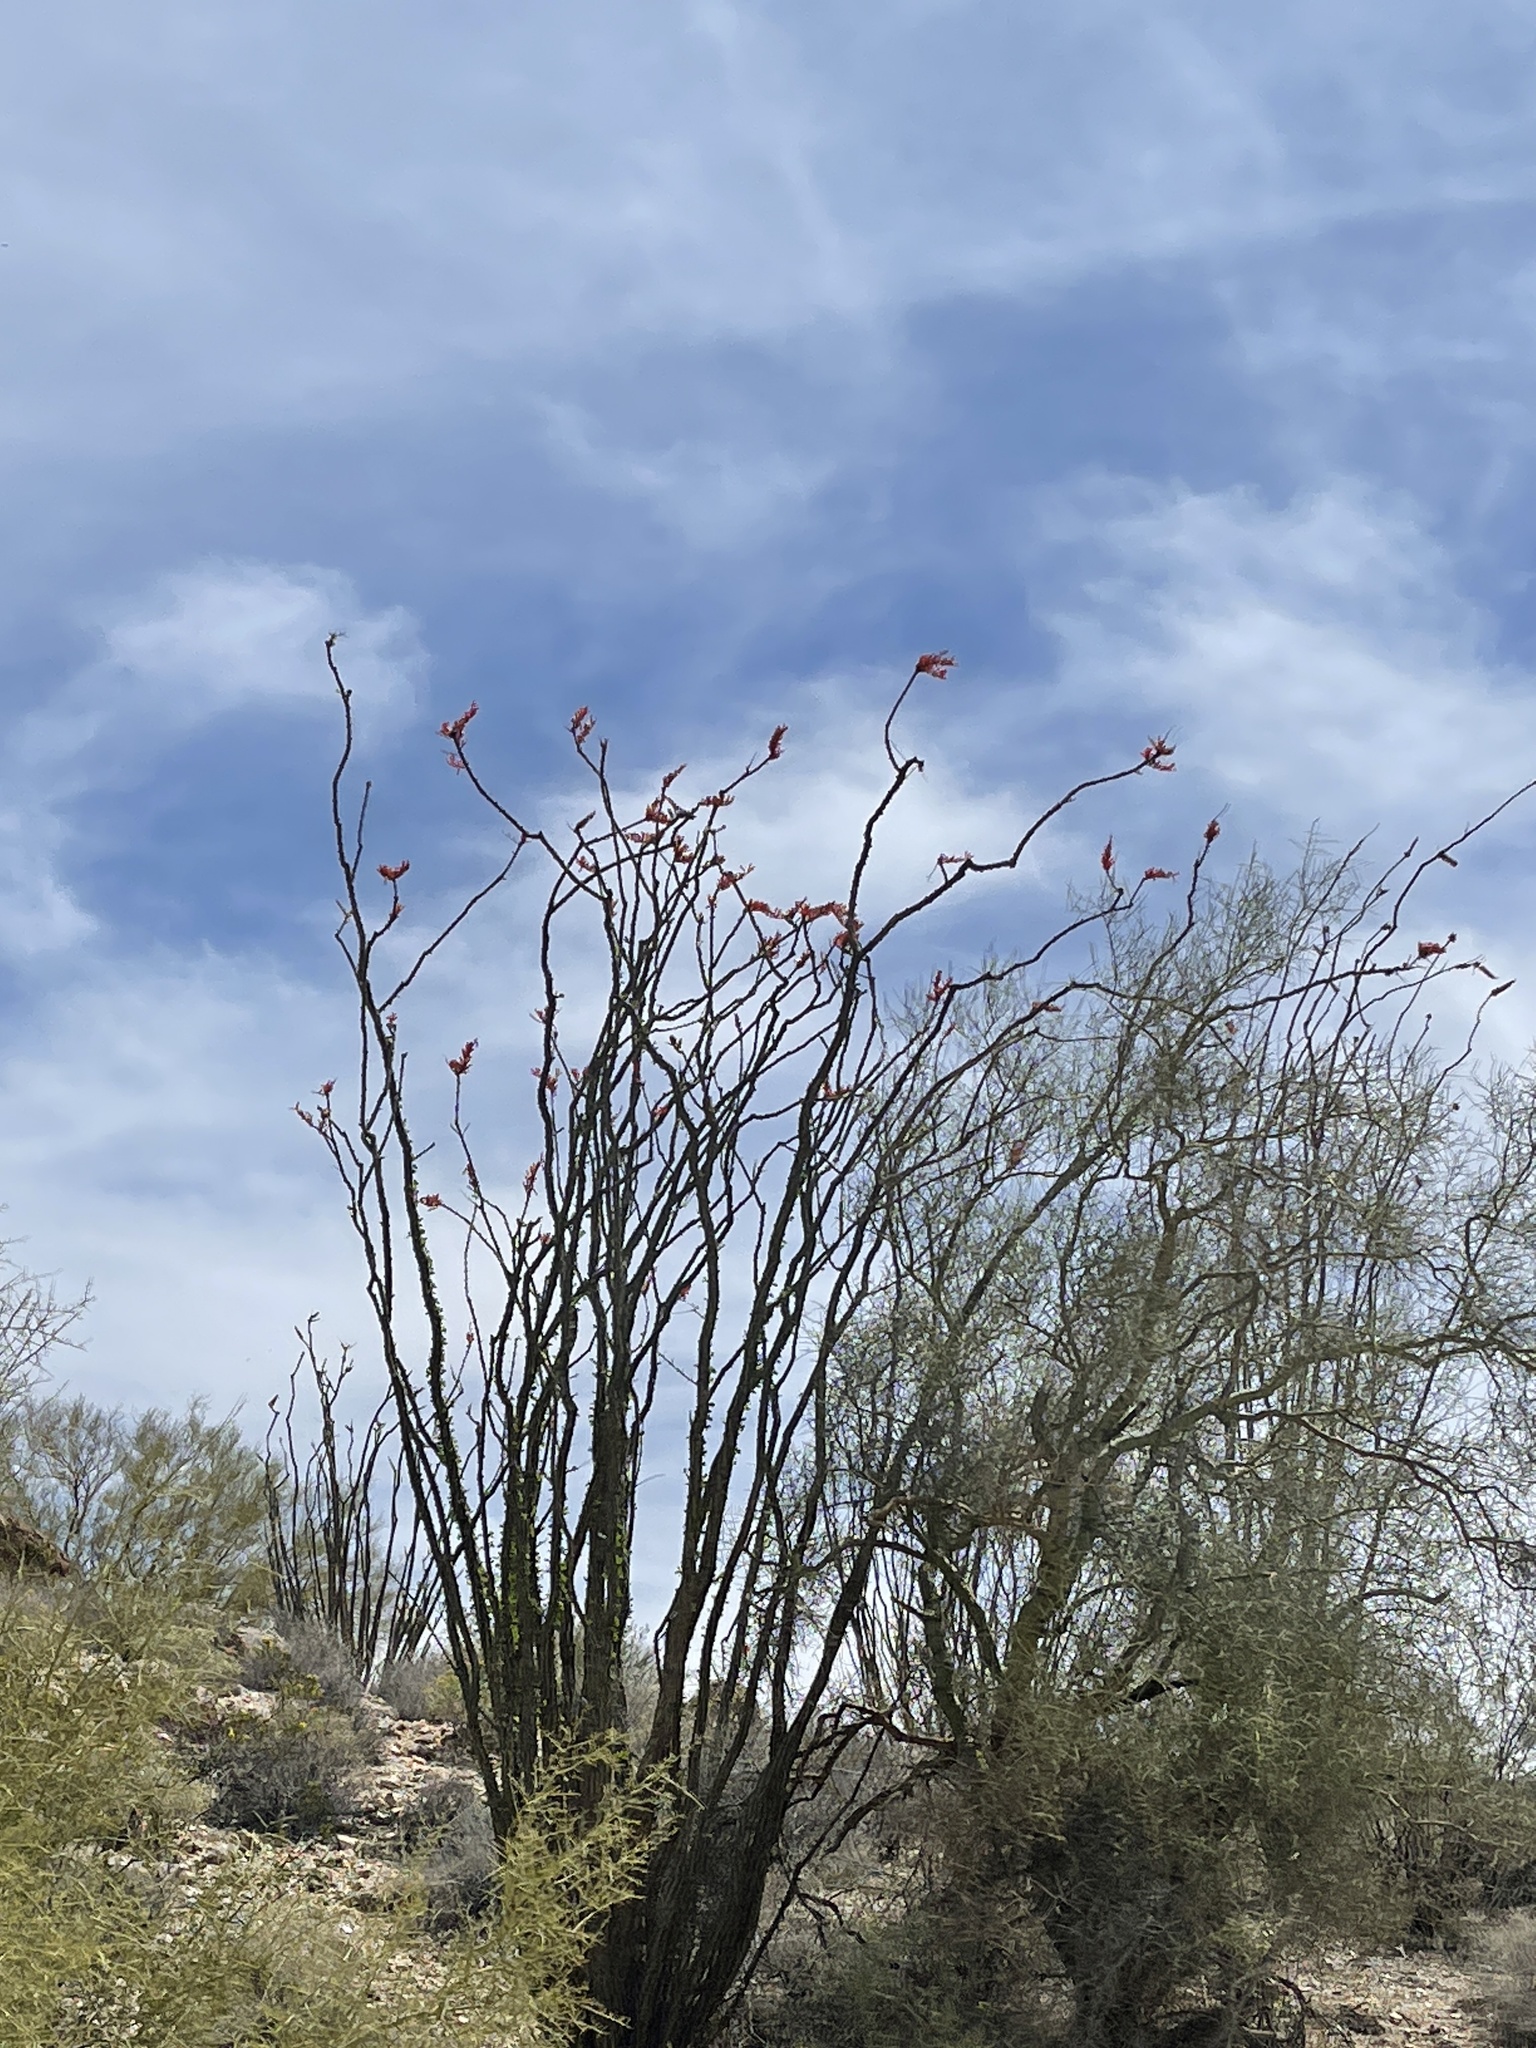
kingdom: Plantae
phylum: Tracheophyta
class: Magnoliopsida
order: Ericales
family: Fouquieriaceae
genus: Fouquieria
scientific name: Fouquieria splendens
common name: Vine-cactus
